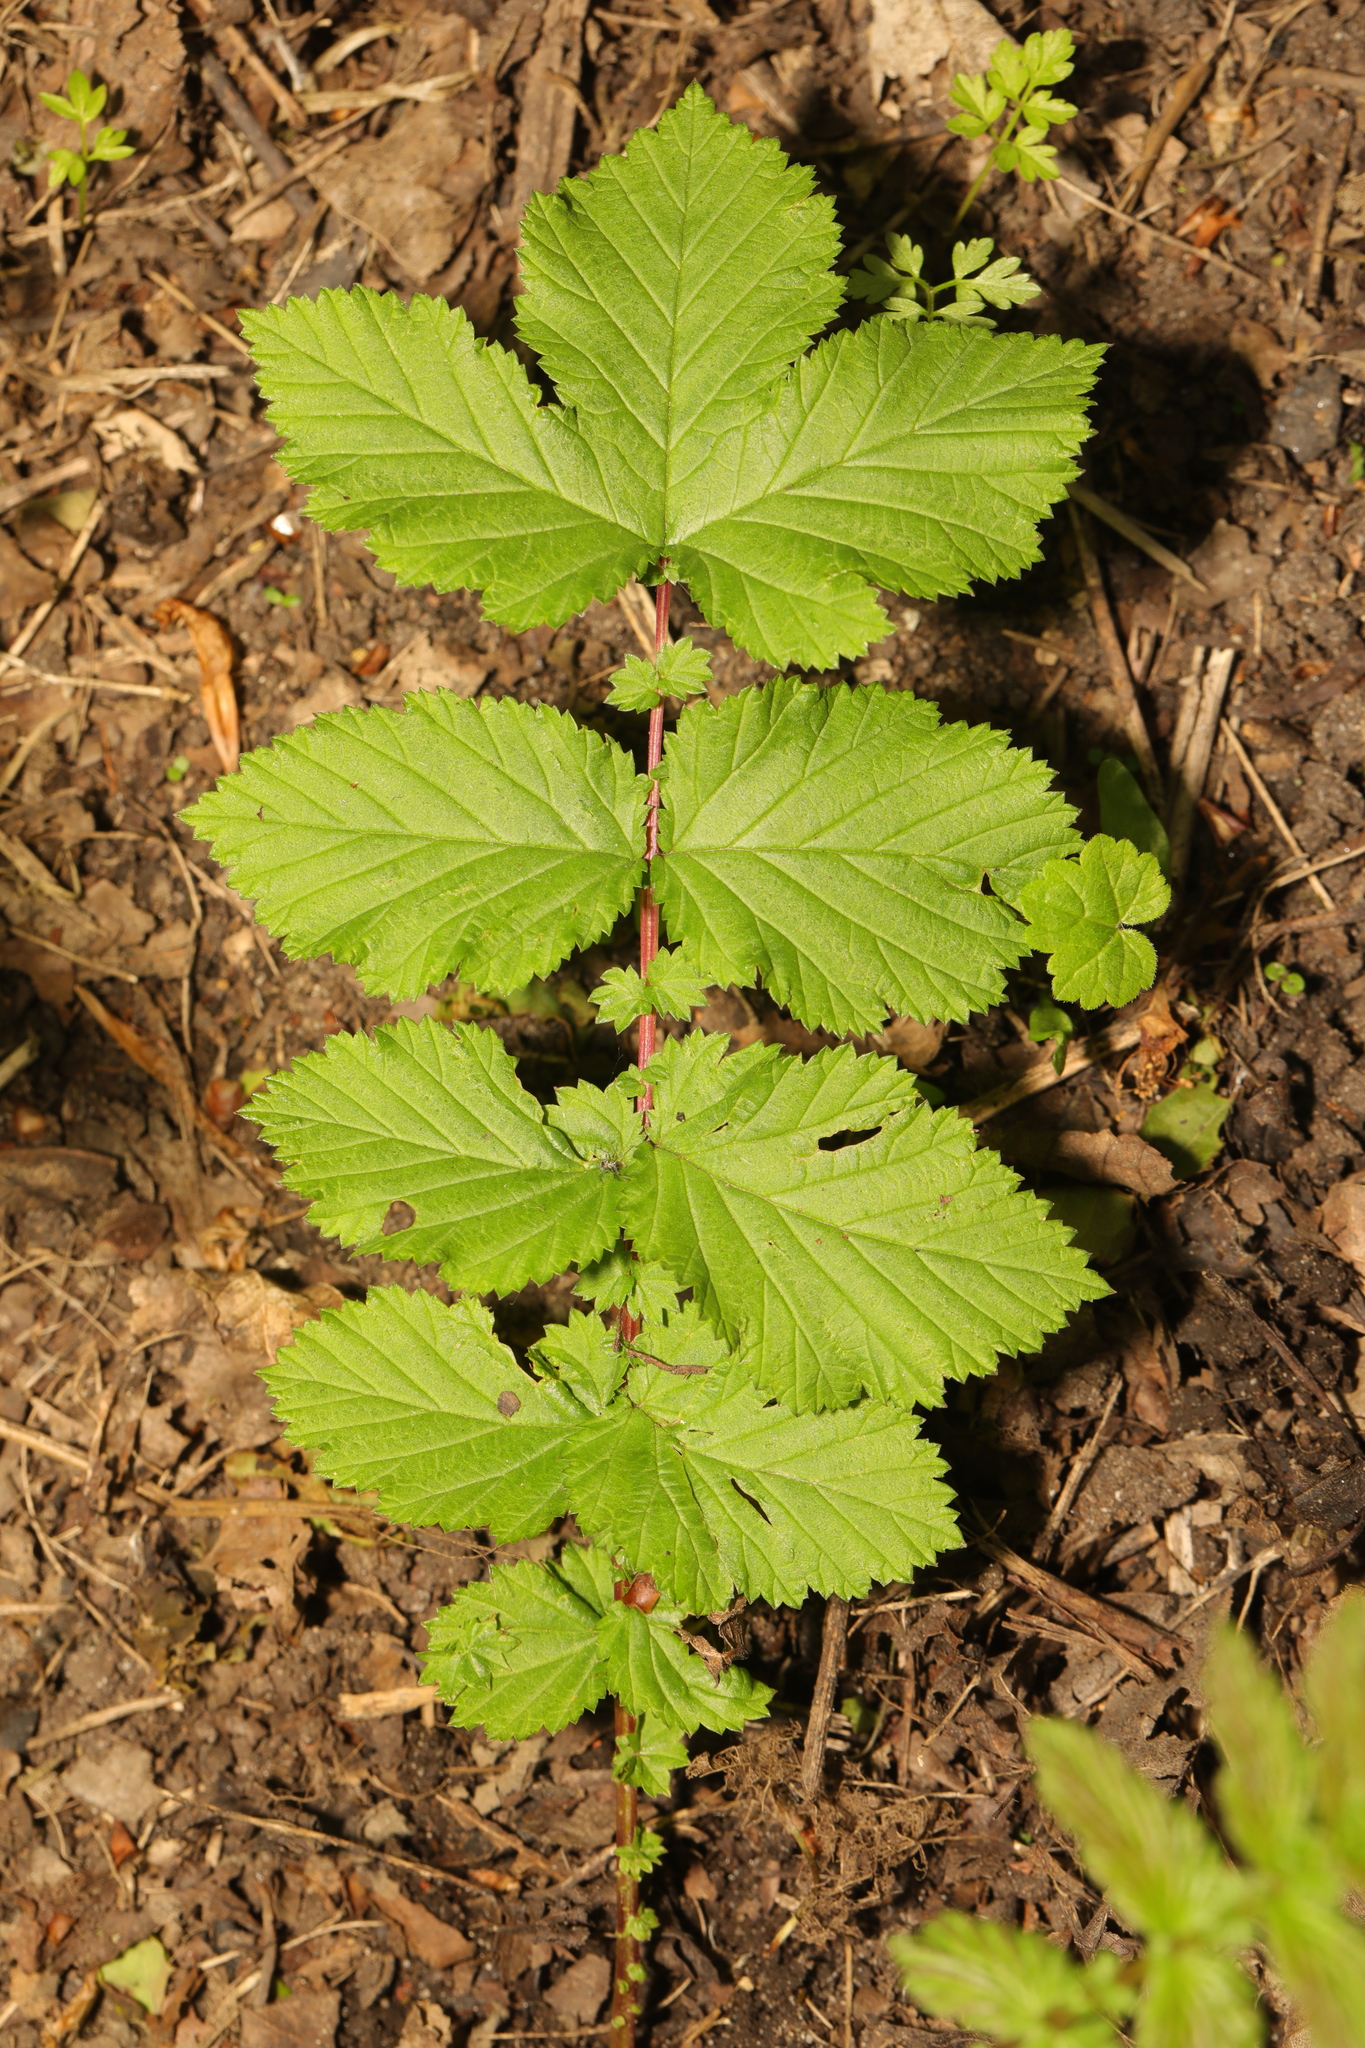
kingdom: Plantae
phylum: Tracheophyta
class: Magnoliopsida
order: Rosales
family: Rosaceae
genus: Filipendula
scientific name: Filipendula ulmaria
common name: Meadowsweet
